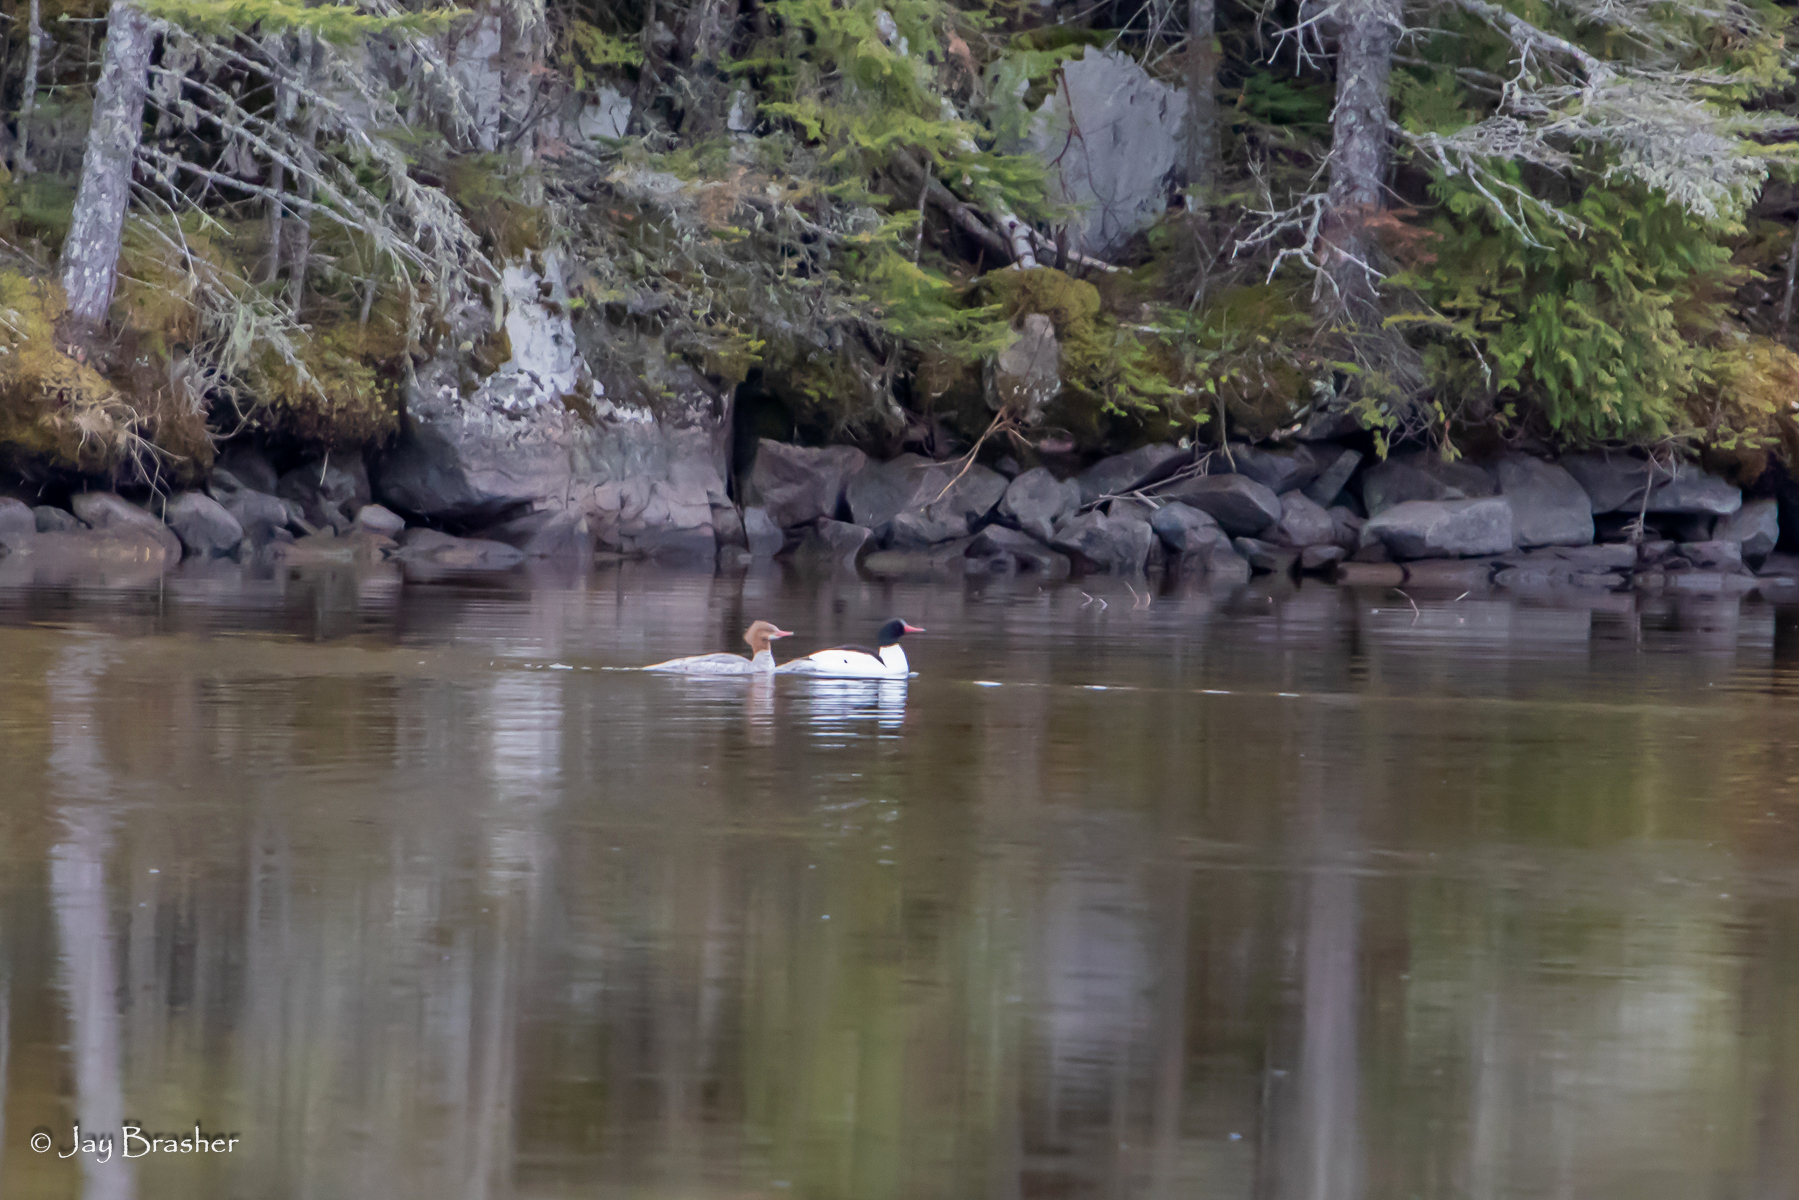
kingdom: Animalia
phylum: Chordata
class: Aves
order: Anseriformes
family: Anatidae
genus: Mergus
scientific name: Mergus merganser
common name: Common merganser
